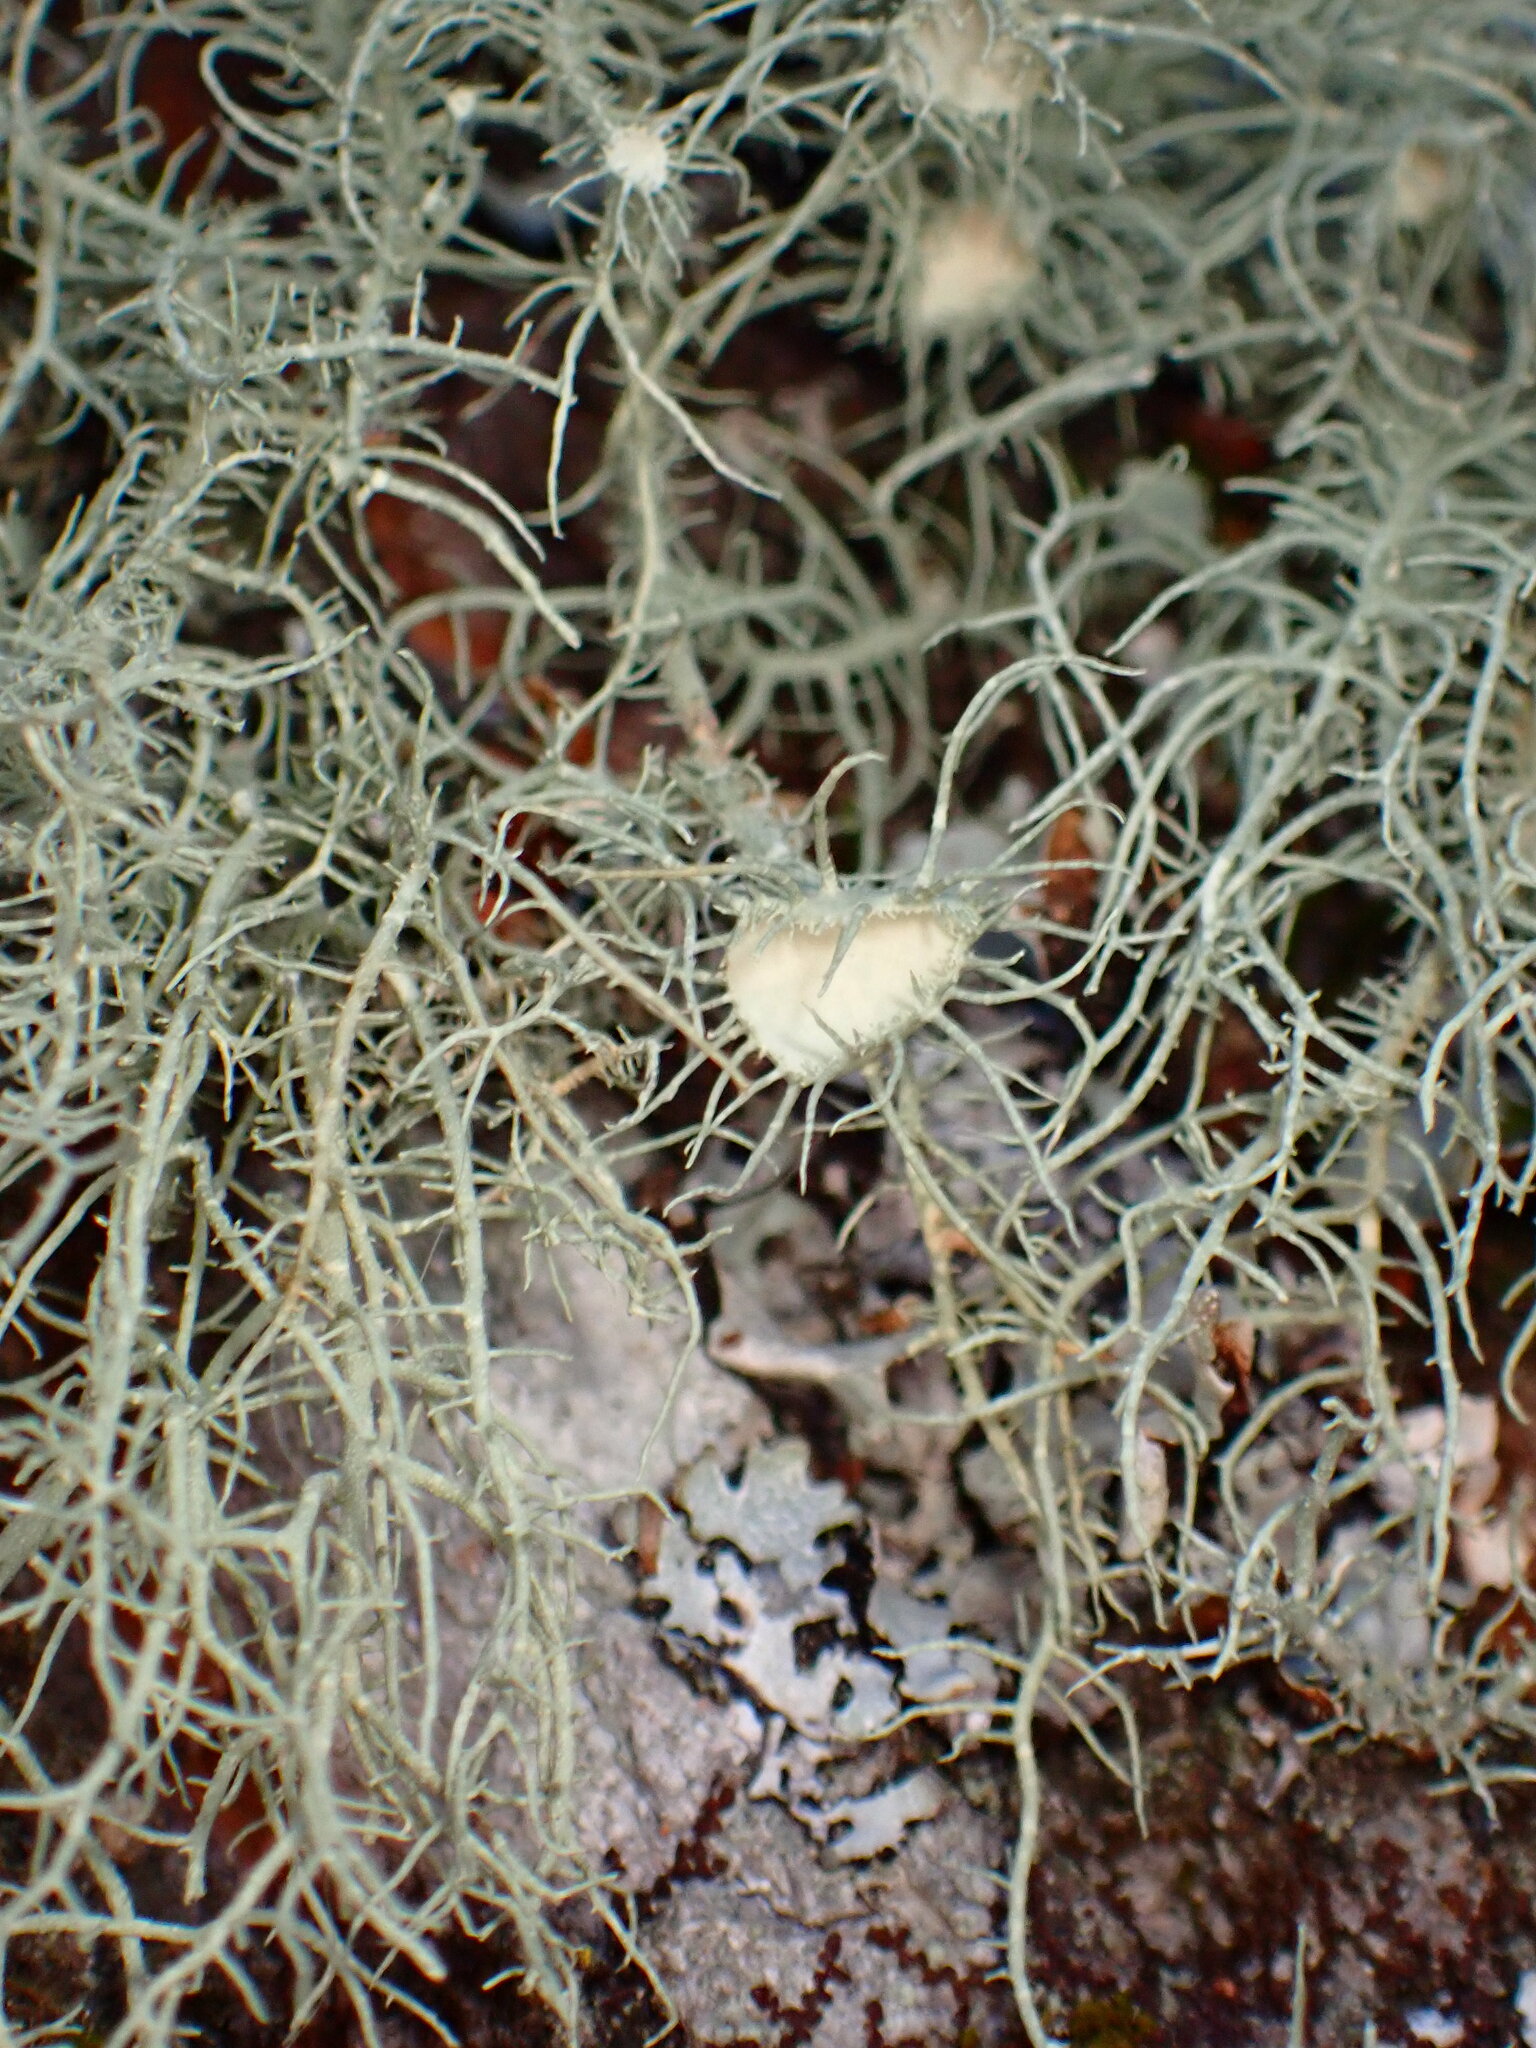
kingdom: Fungi
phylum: Ascomycota
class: Lecanoromycetes
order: Lecanorales
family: Parmeliaceae
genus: Usnea
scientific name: Usnea intermedia
